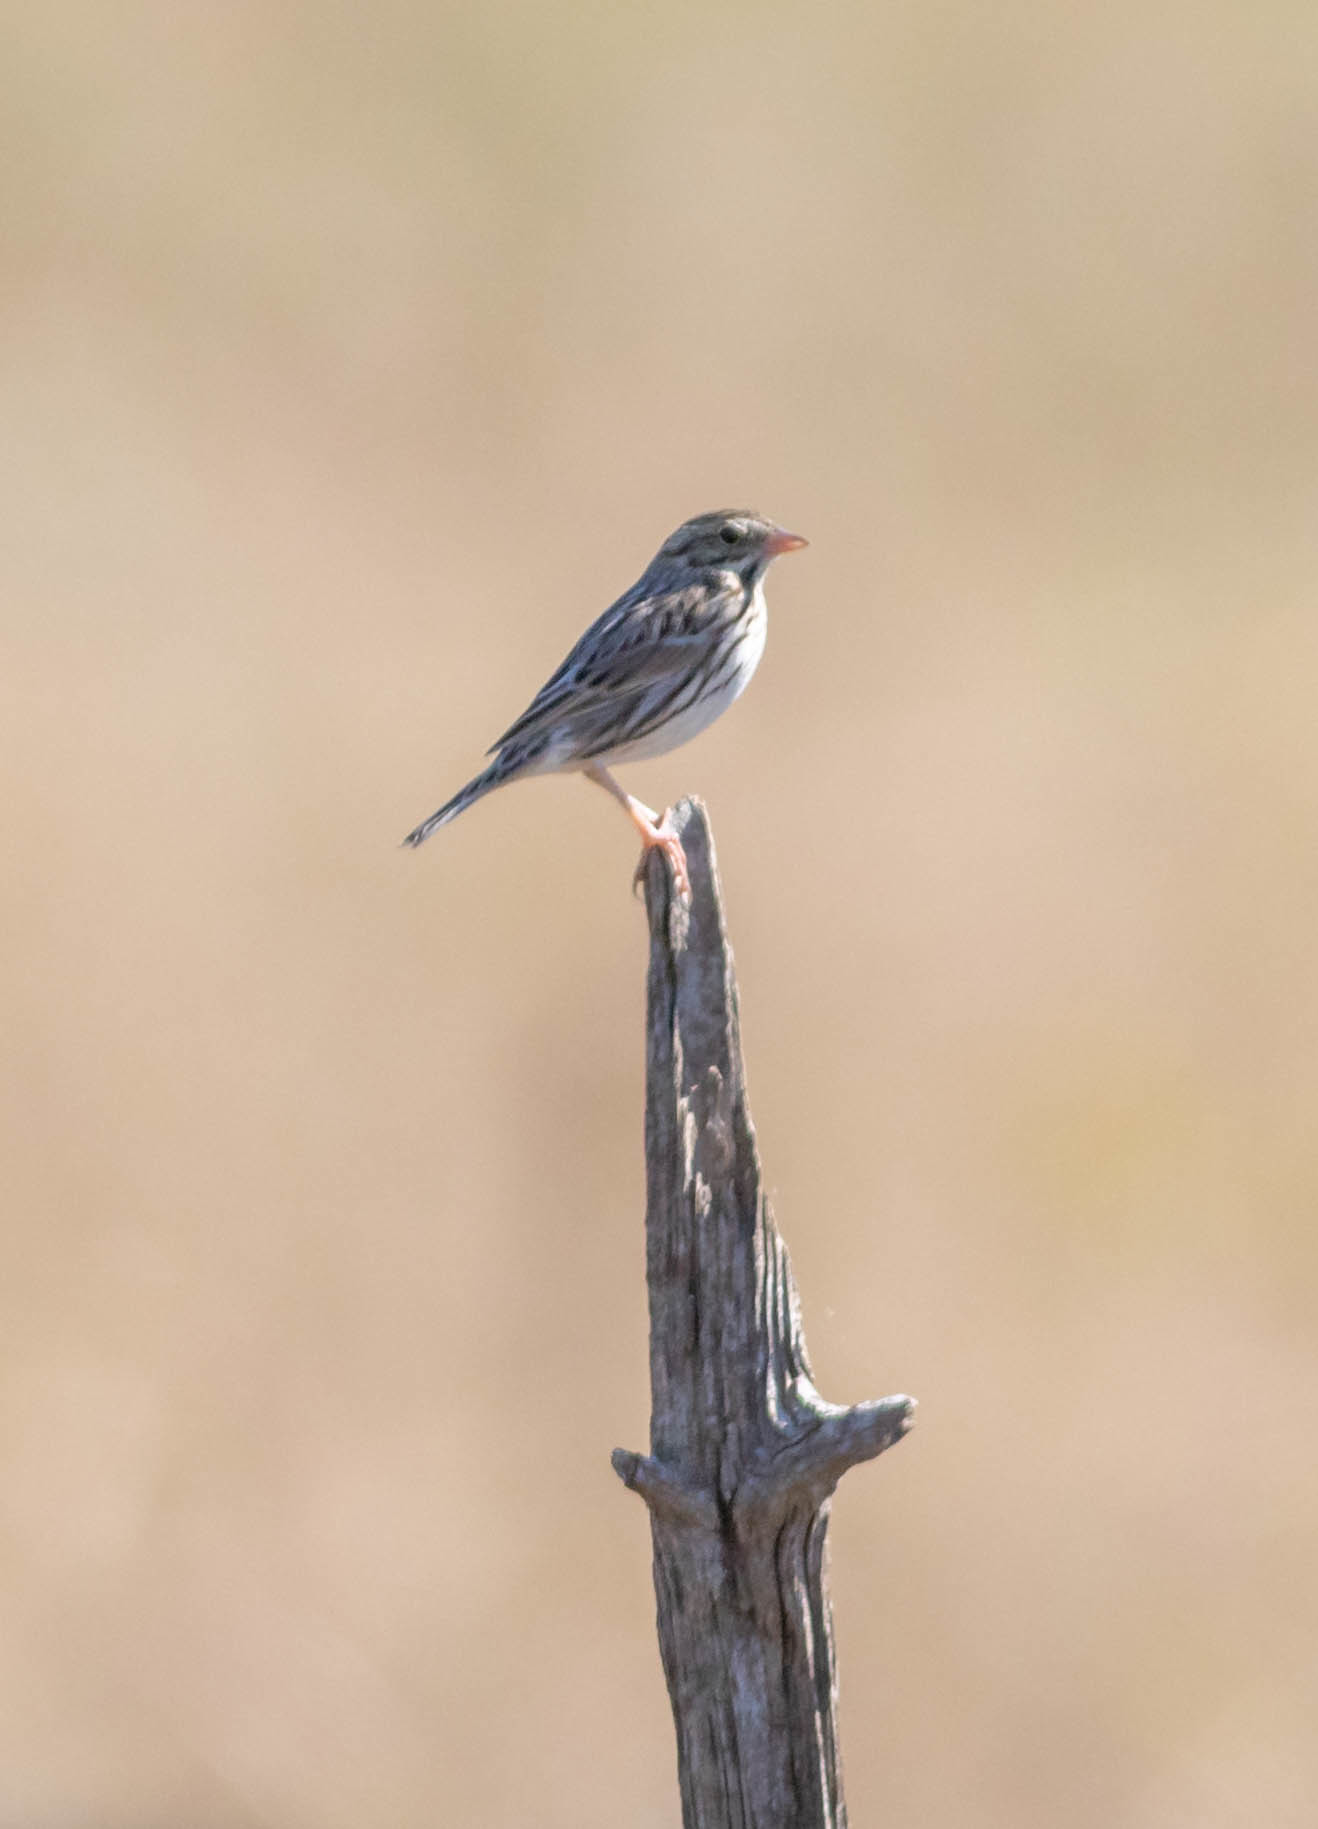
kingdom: Animalia
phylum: Chordata
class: Aves
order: Passeriformes
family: Passerellidae
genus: Passerculus
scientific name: Passerculus sandwichensis
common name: Savannah sparrow
